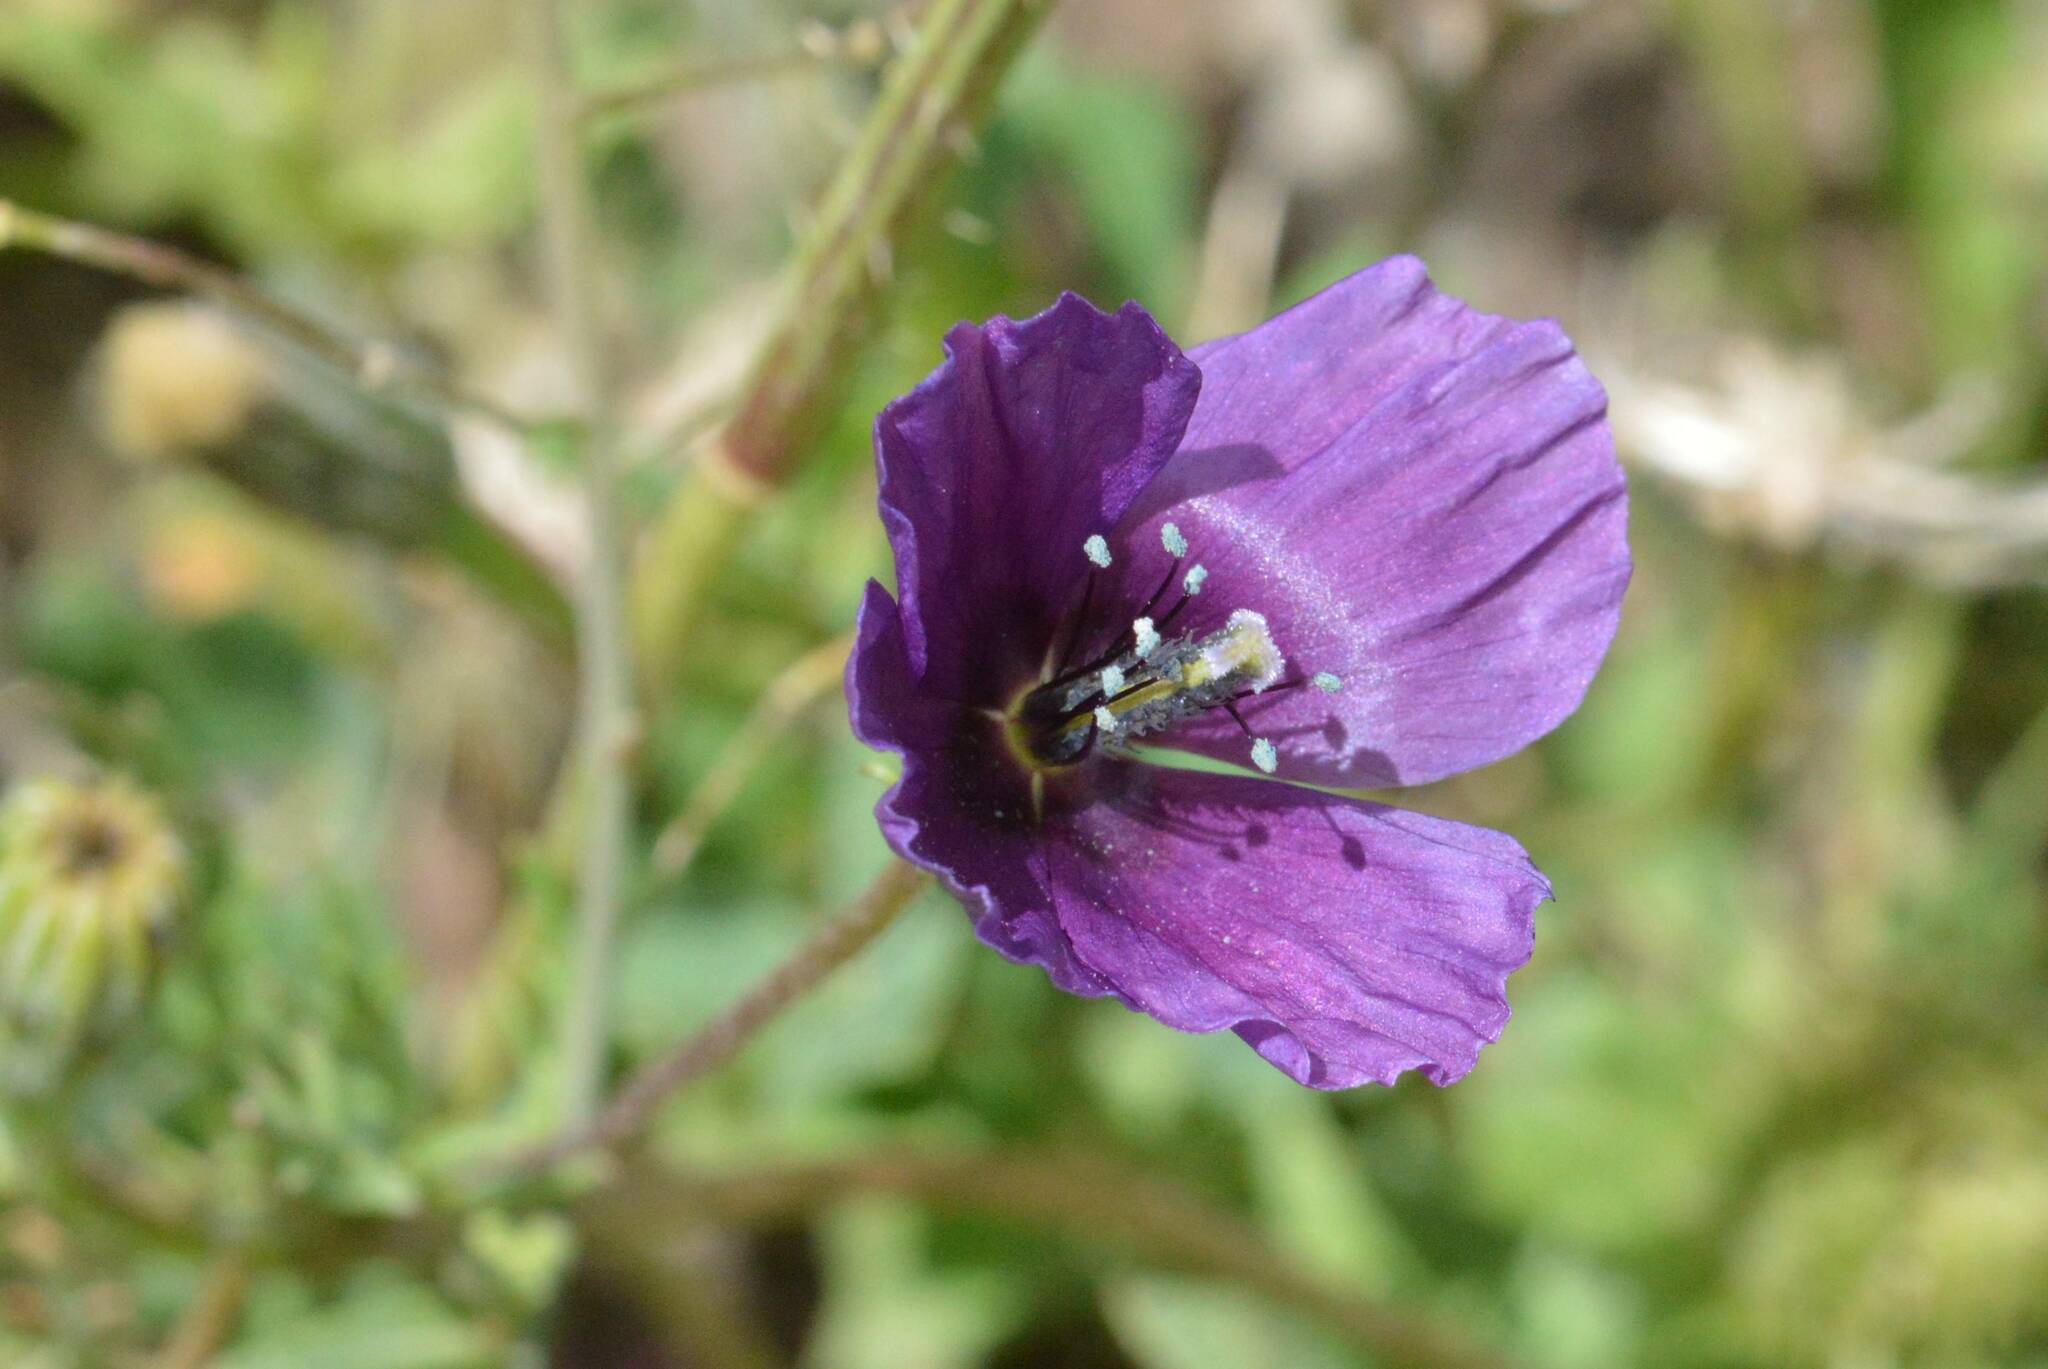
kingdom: Plantae
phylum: Tracheophyta
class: Magnoliopsida
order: Ranunculales
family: Papaveraceae
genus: Roemeria
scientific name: Roemeria hybrida
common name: Violet horned-poppy
